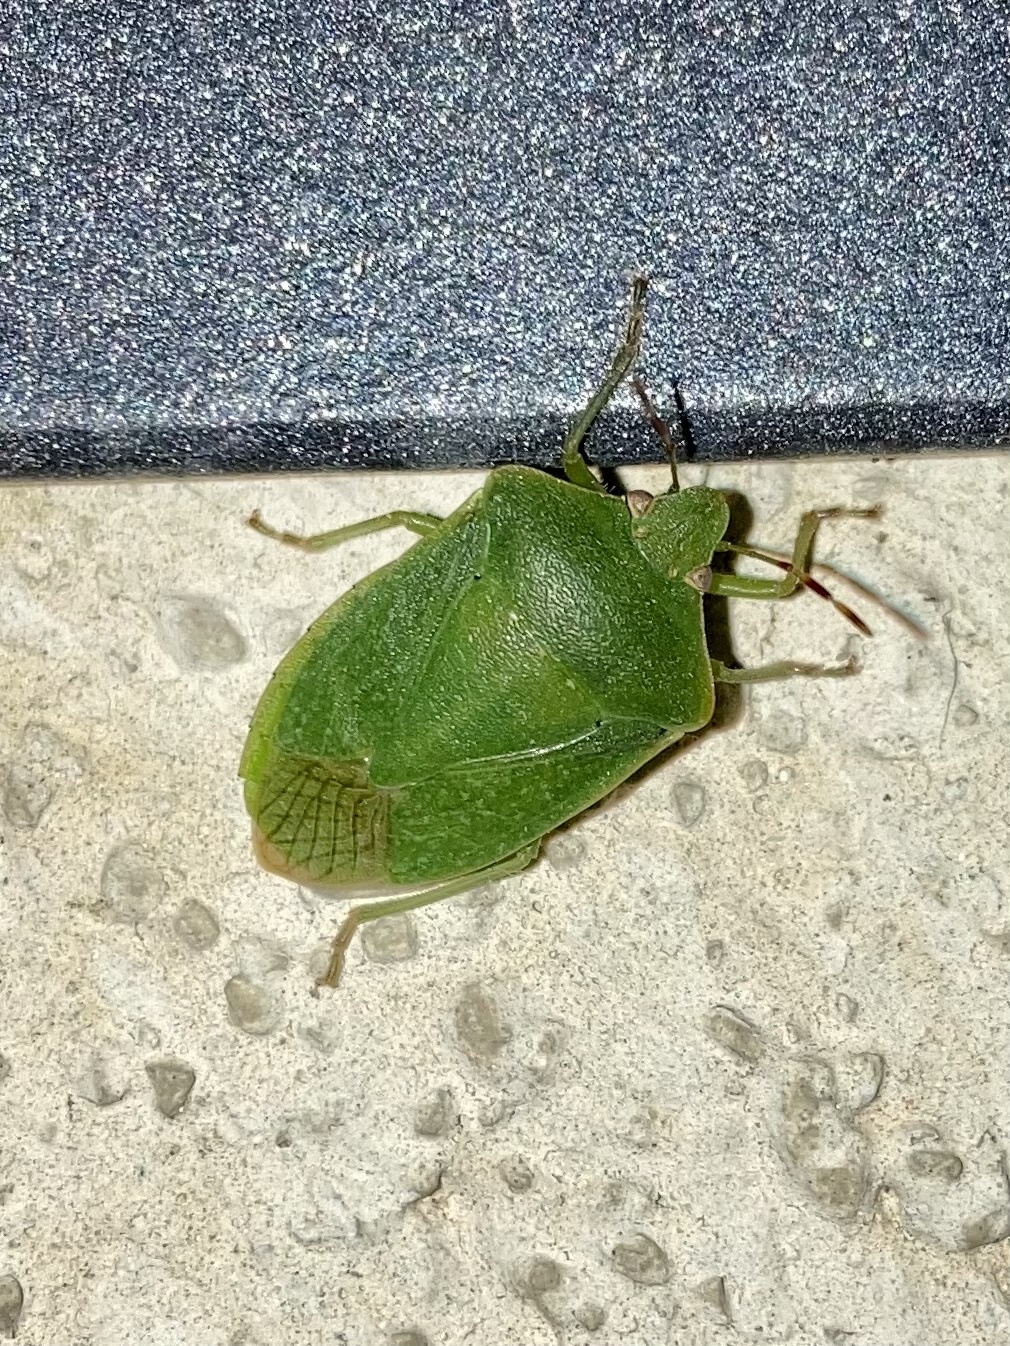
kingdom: Animalia
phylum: Arthropoda
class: Insecta
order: Hemiptera
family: Pentatomidae
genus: Nezara
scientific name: Nezara viridula
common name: Southern green stink bug
